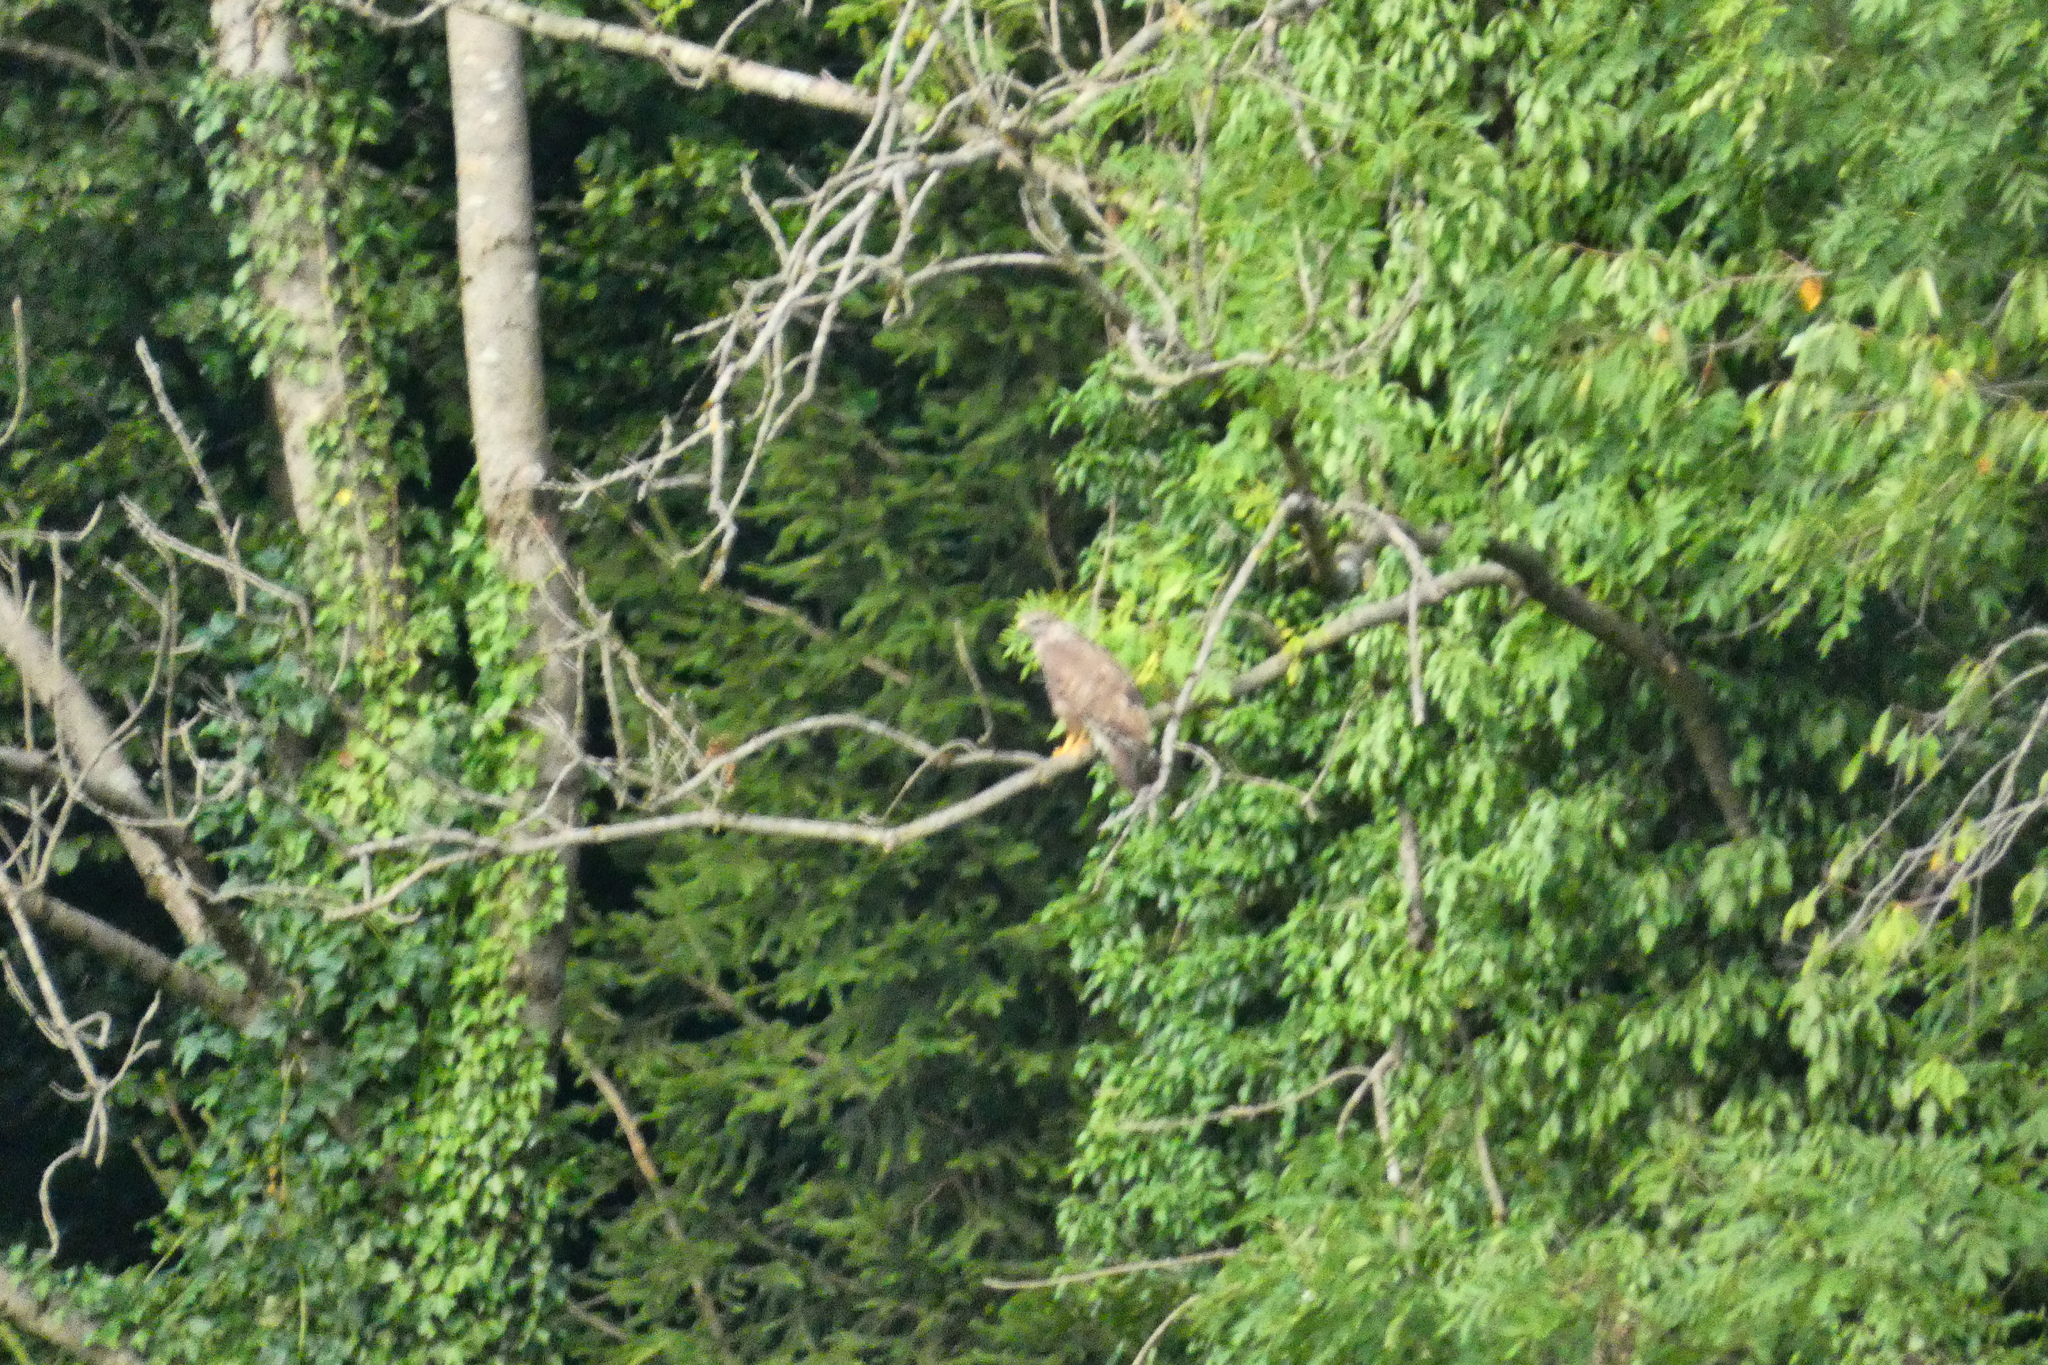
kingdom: Animalia
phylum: Chordata
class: Aves
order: Accipitriformes
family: Accipitridae
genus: Buteo
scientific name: Buteo buteo
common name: Common buzzard
